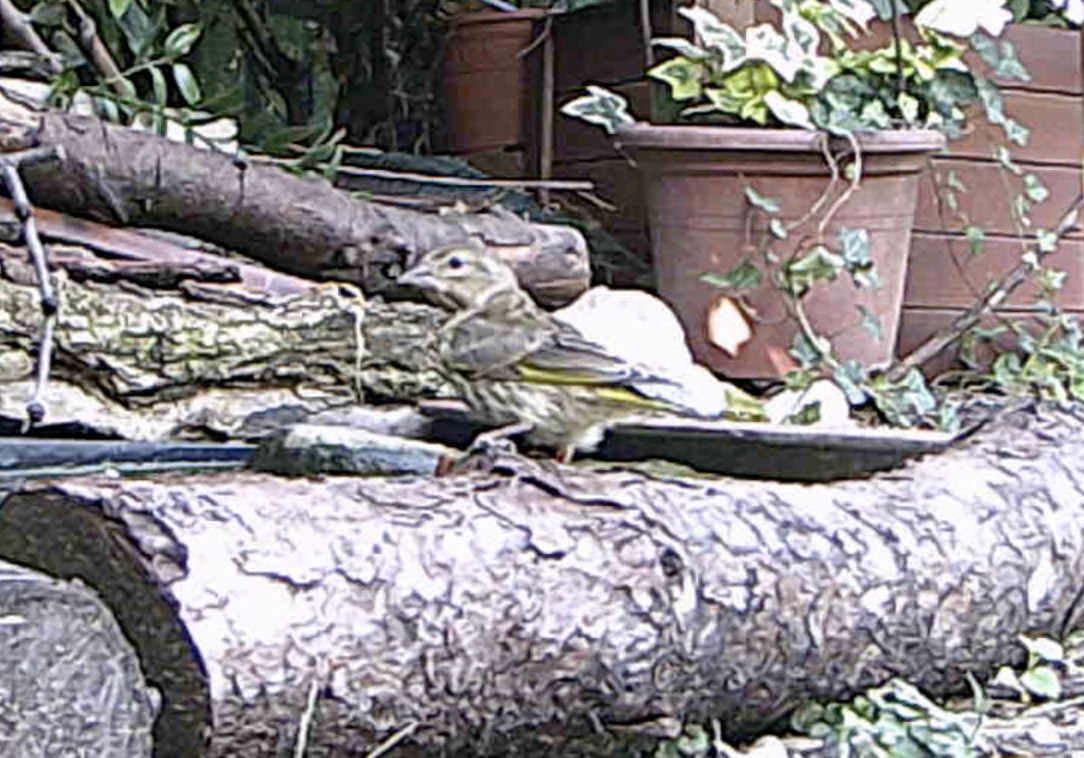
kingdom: Plantae
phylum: Tracheophyta
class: Liliopsida
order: Poales
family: Poaceae
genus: Chloris
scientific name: Chloris chloris
